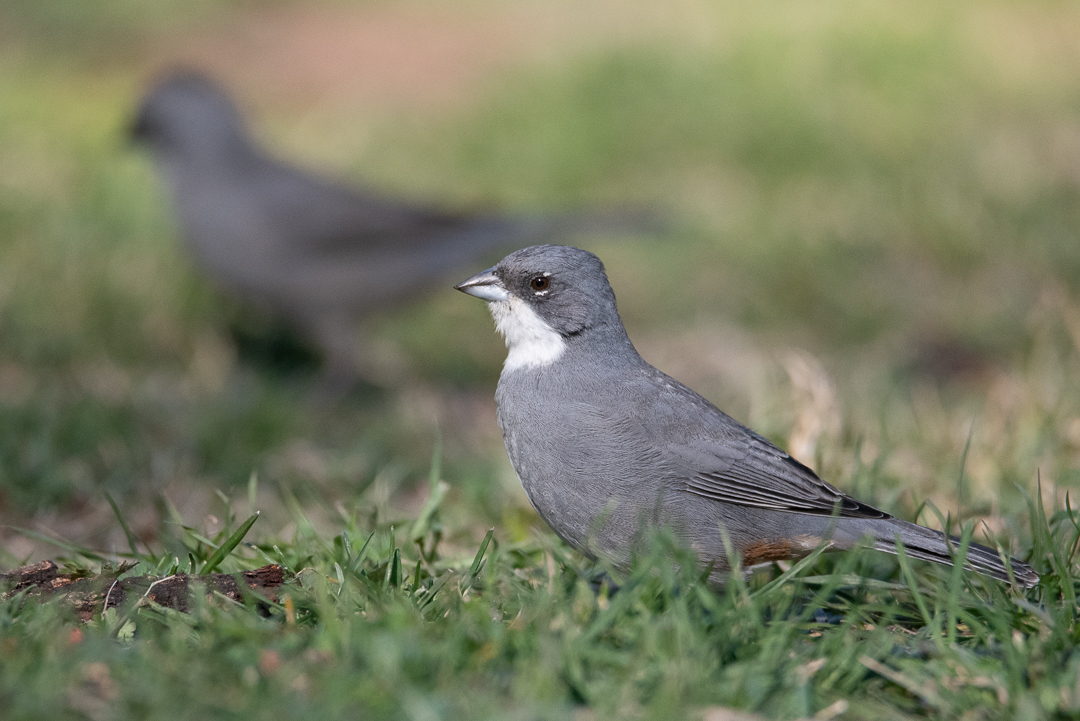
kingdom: Animalia
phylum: Chordata
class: Aves
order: Passeriformes
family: Thraupidae
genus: Diuca
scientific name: Diuca diuca
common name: Common diuca finch
